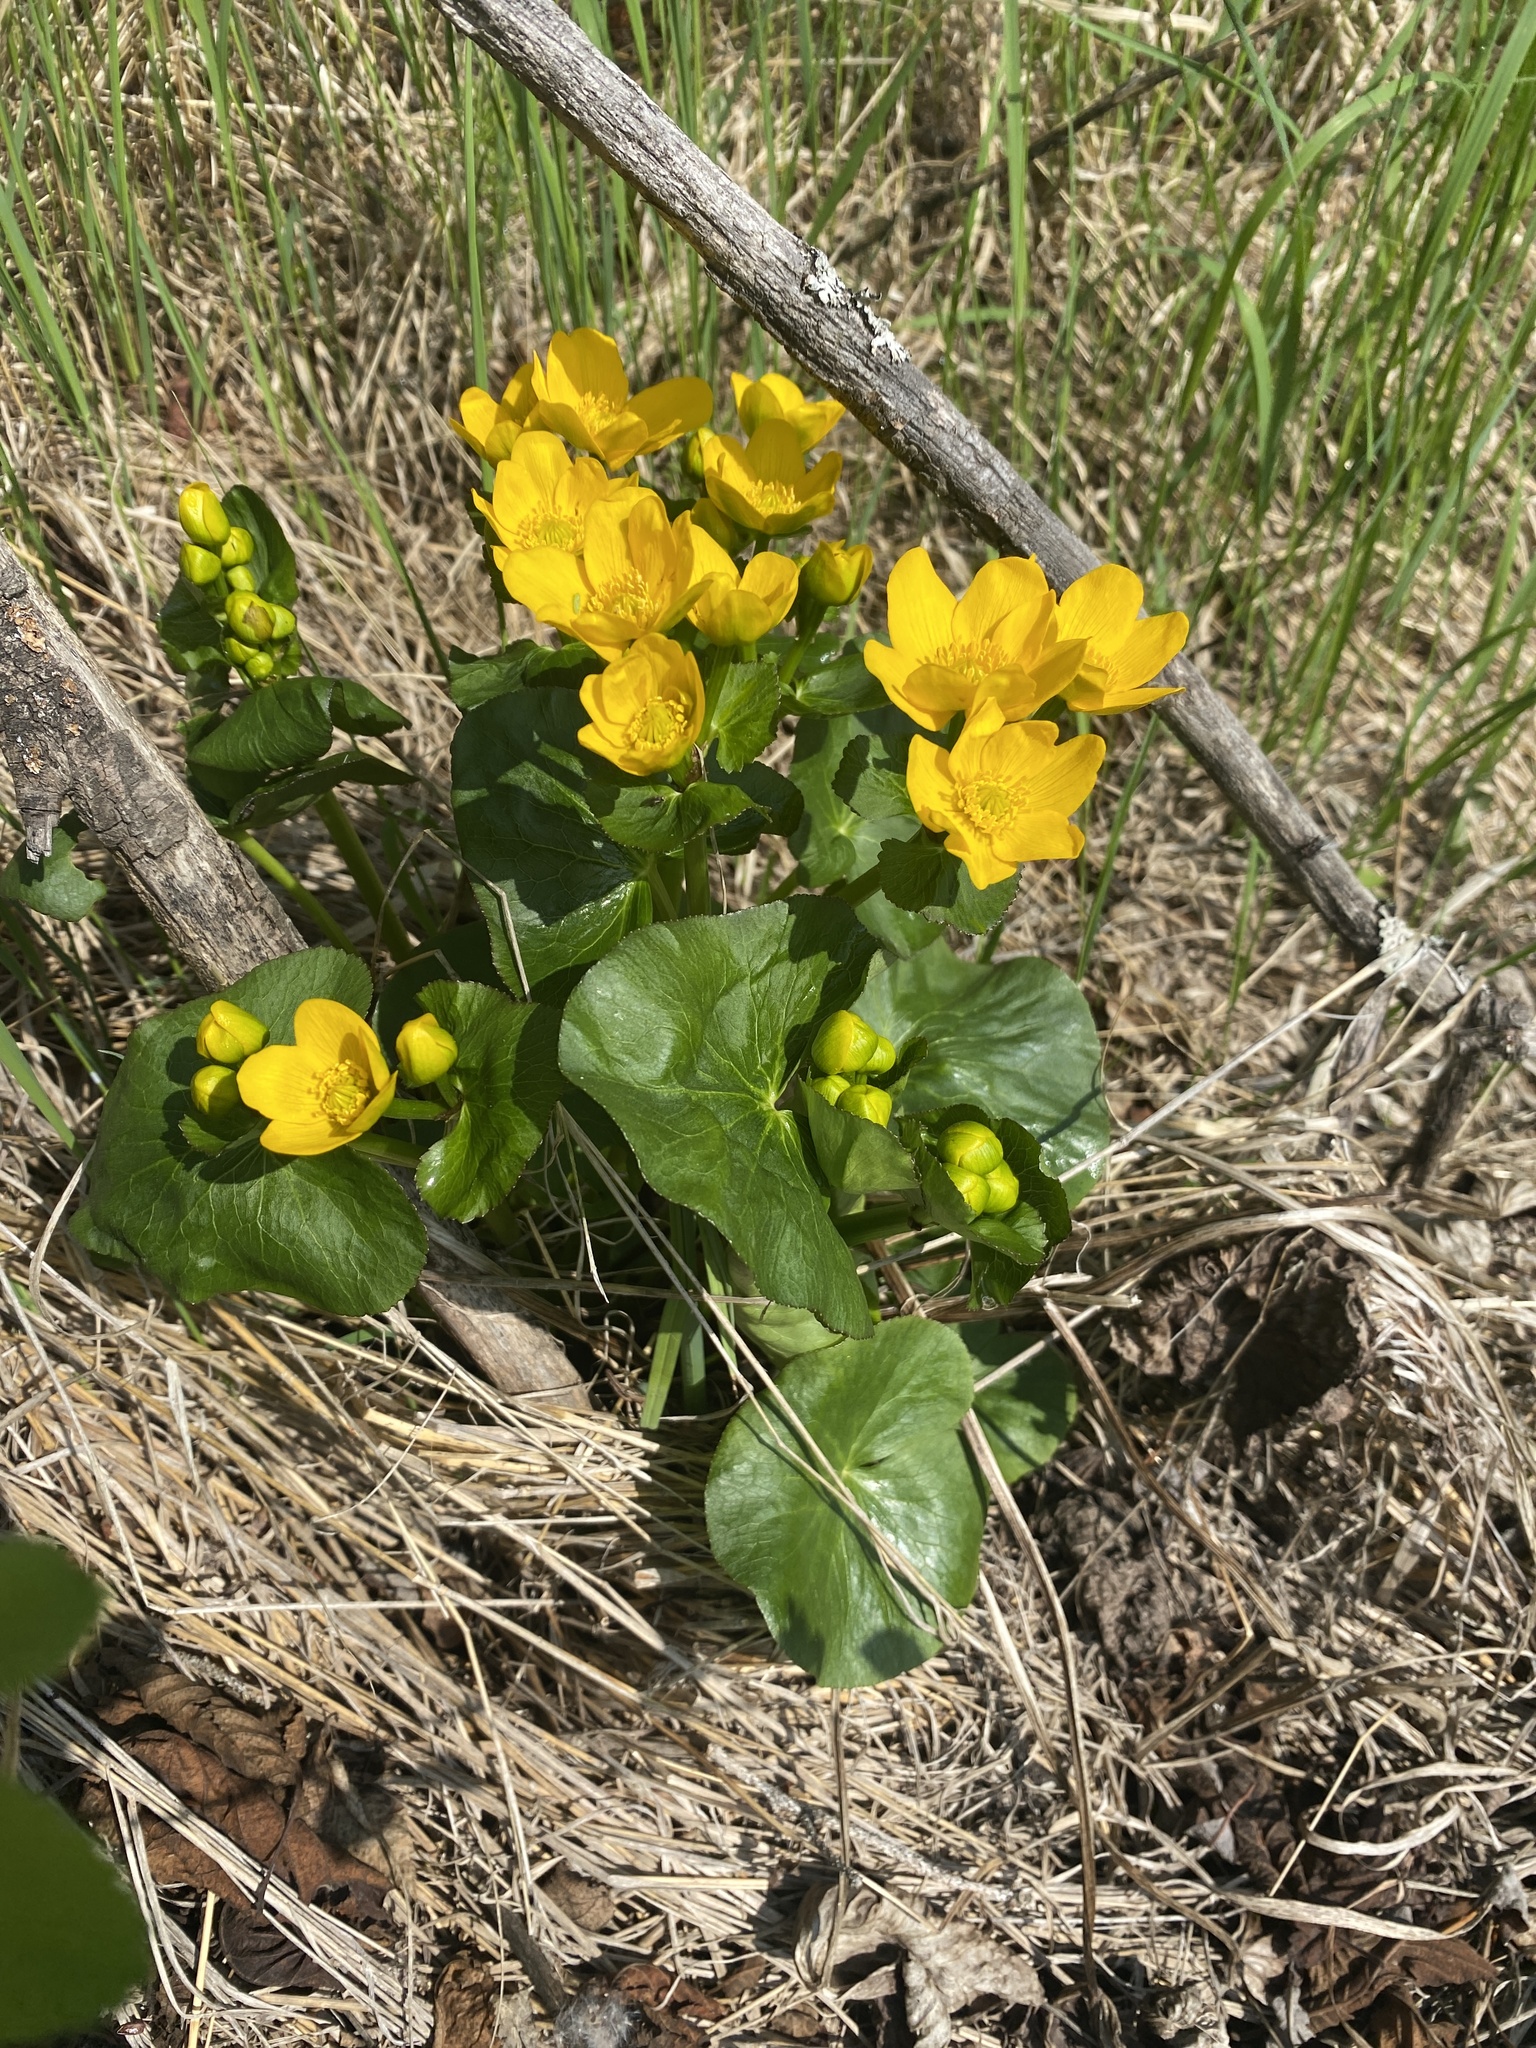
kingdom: Plantae
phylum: Tracheophyta
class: Magnoliopsida
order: Ranunculales
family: Ranunculaceae
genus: Caltha
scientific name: Caltha palustris
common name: Marsh marigold
